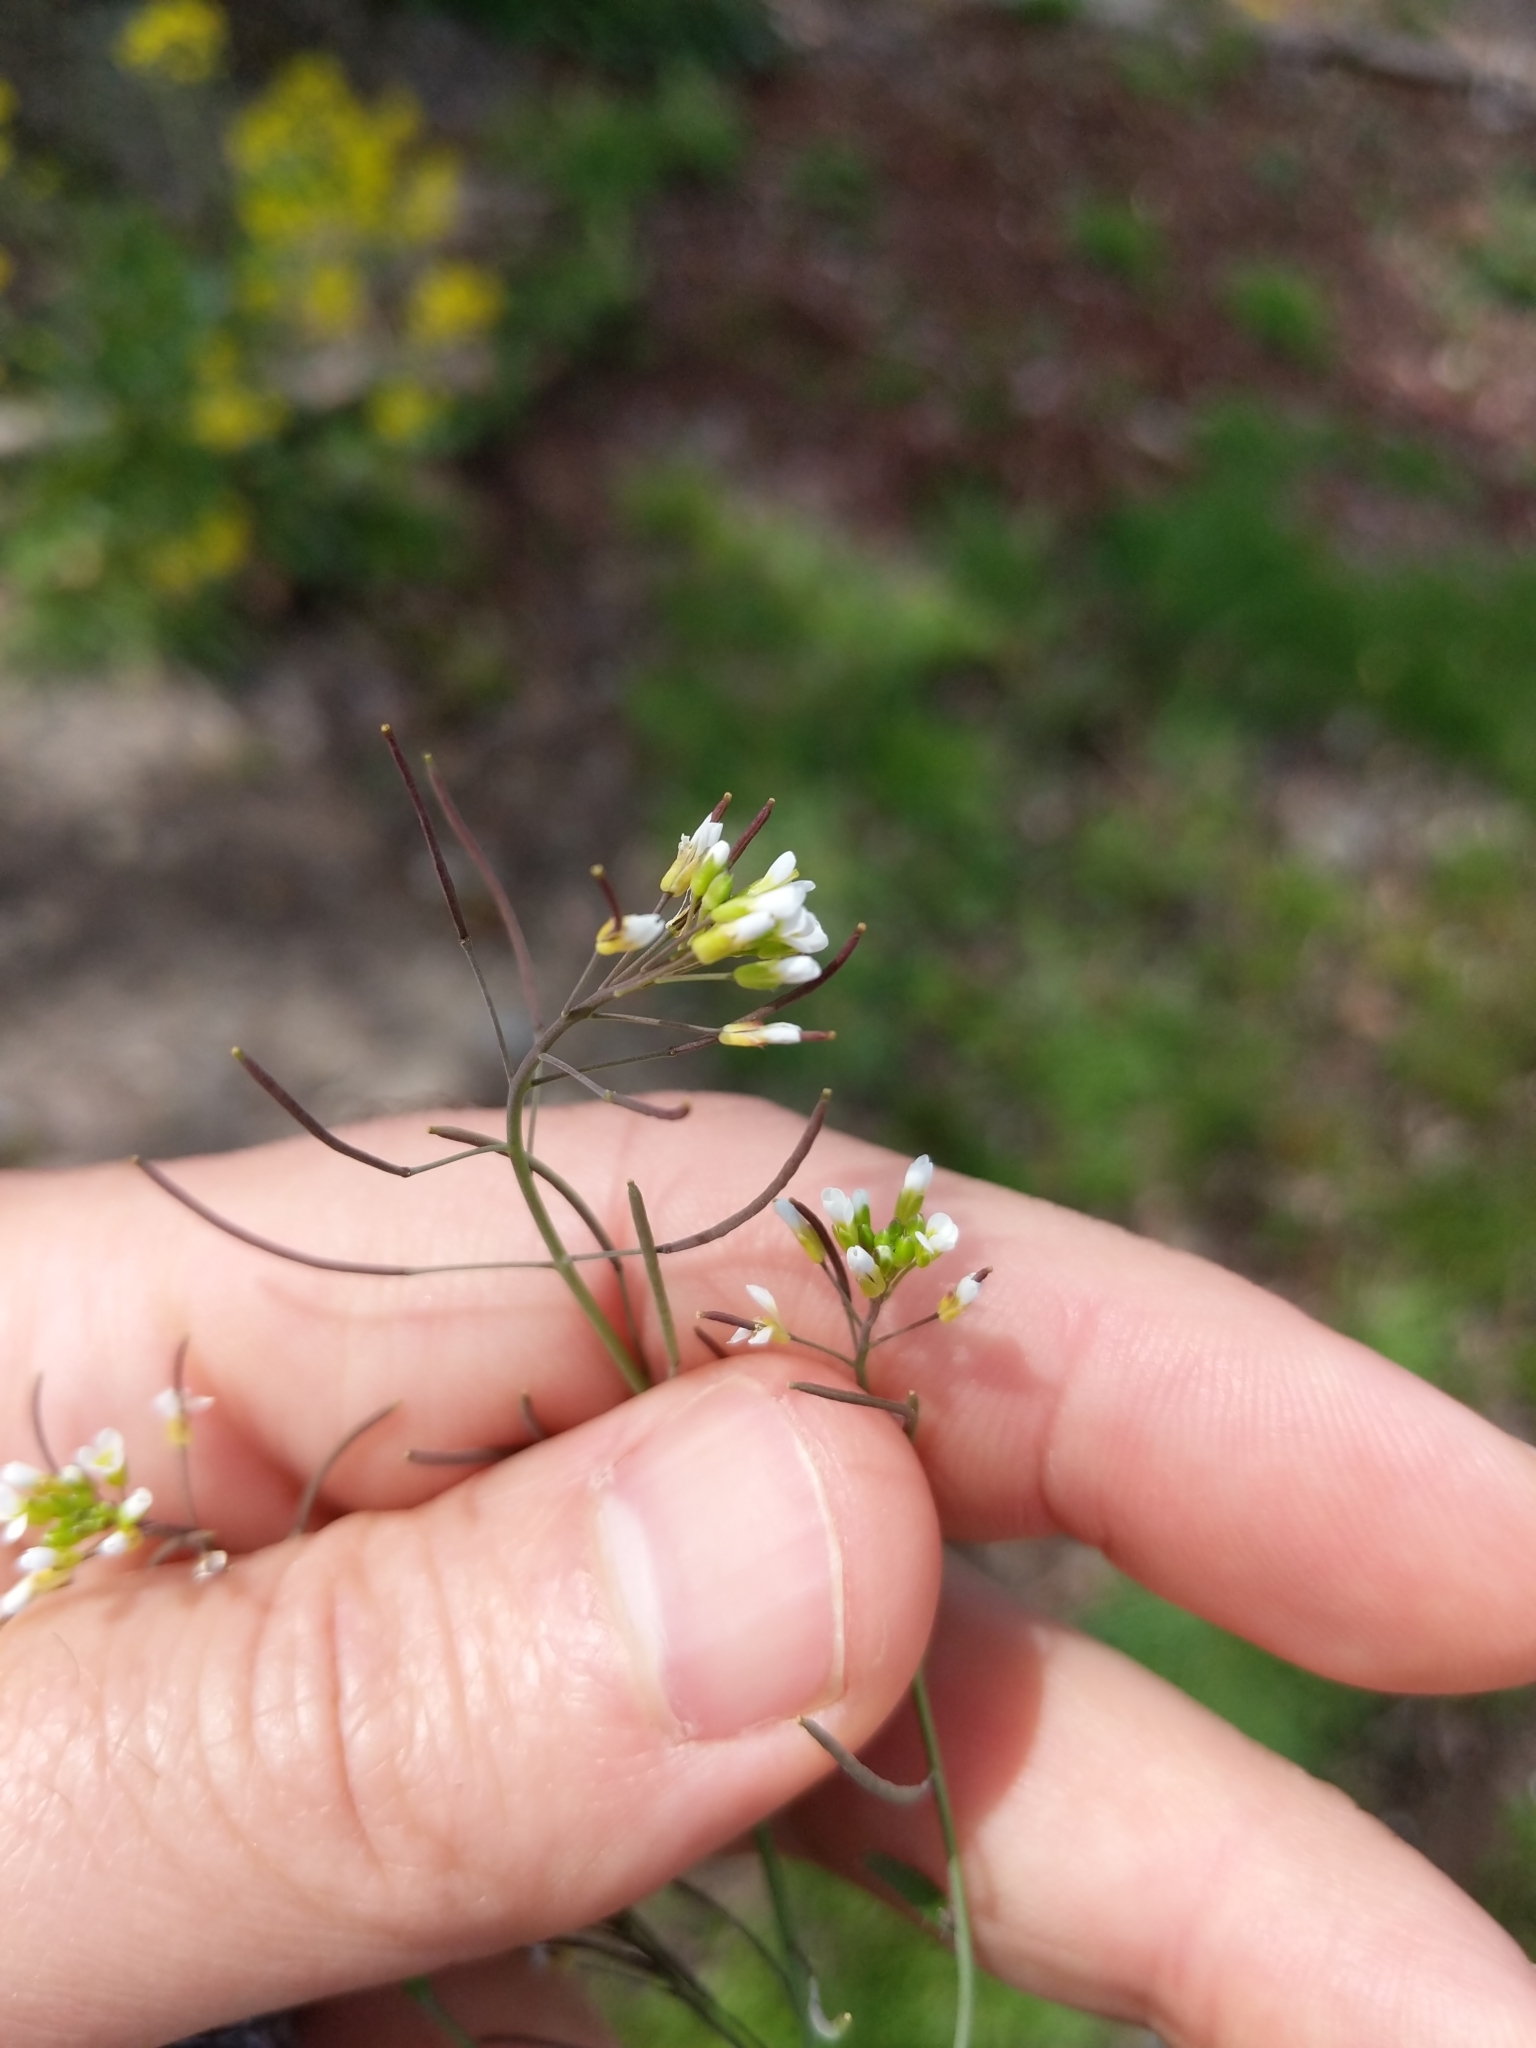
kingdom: Plantae
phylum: Tracheophyta
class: Magnoliopsida
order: Brassicales
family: Brassicaceae
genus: Arabidopsis
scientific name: Arabidopsis thaliana
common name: Thale cress
